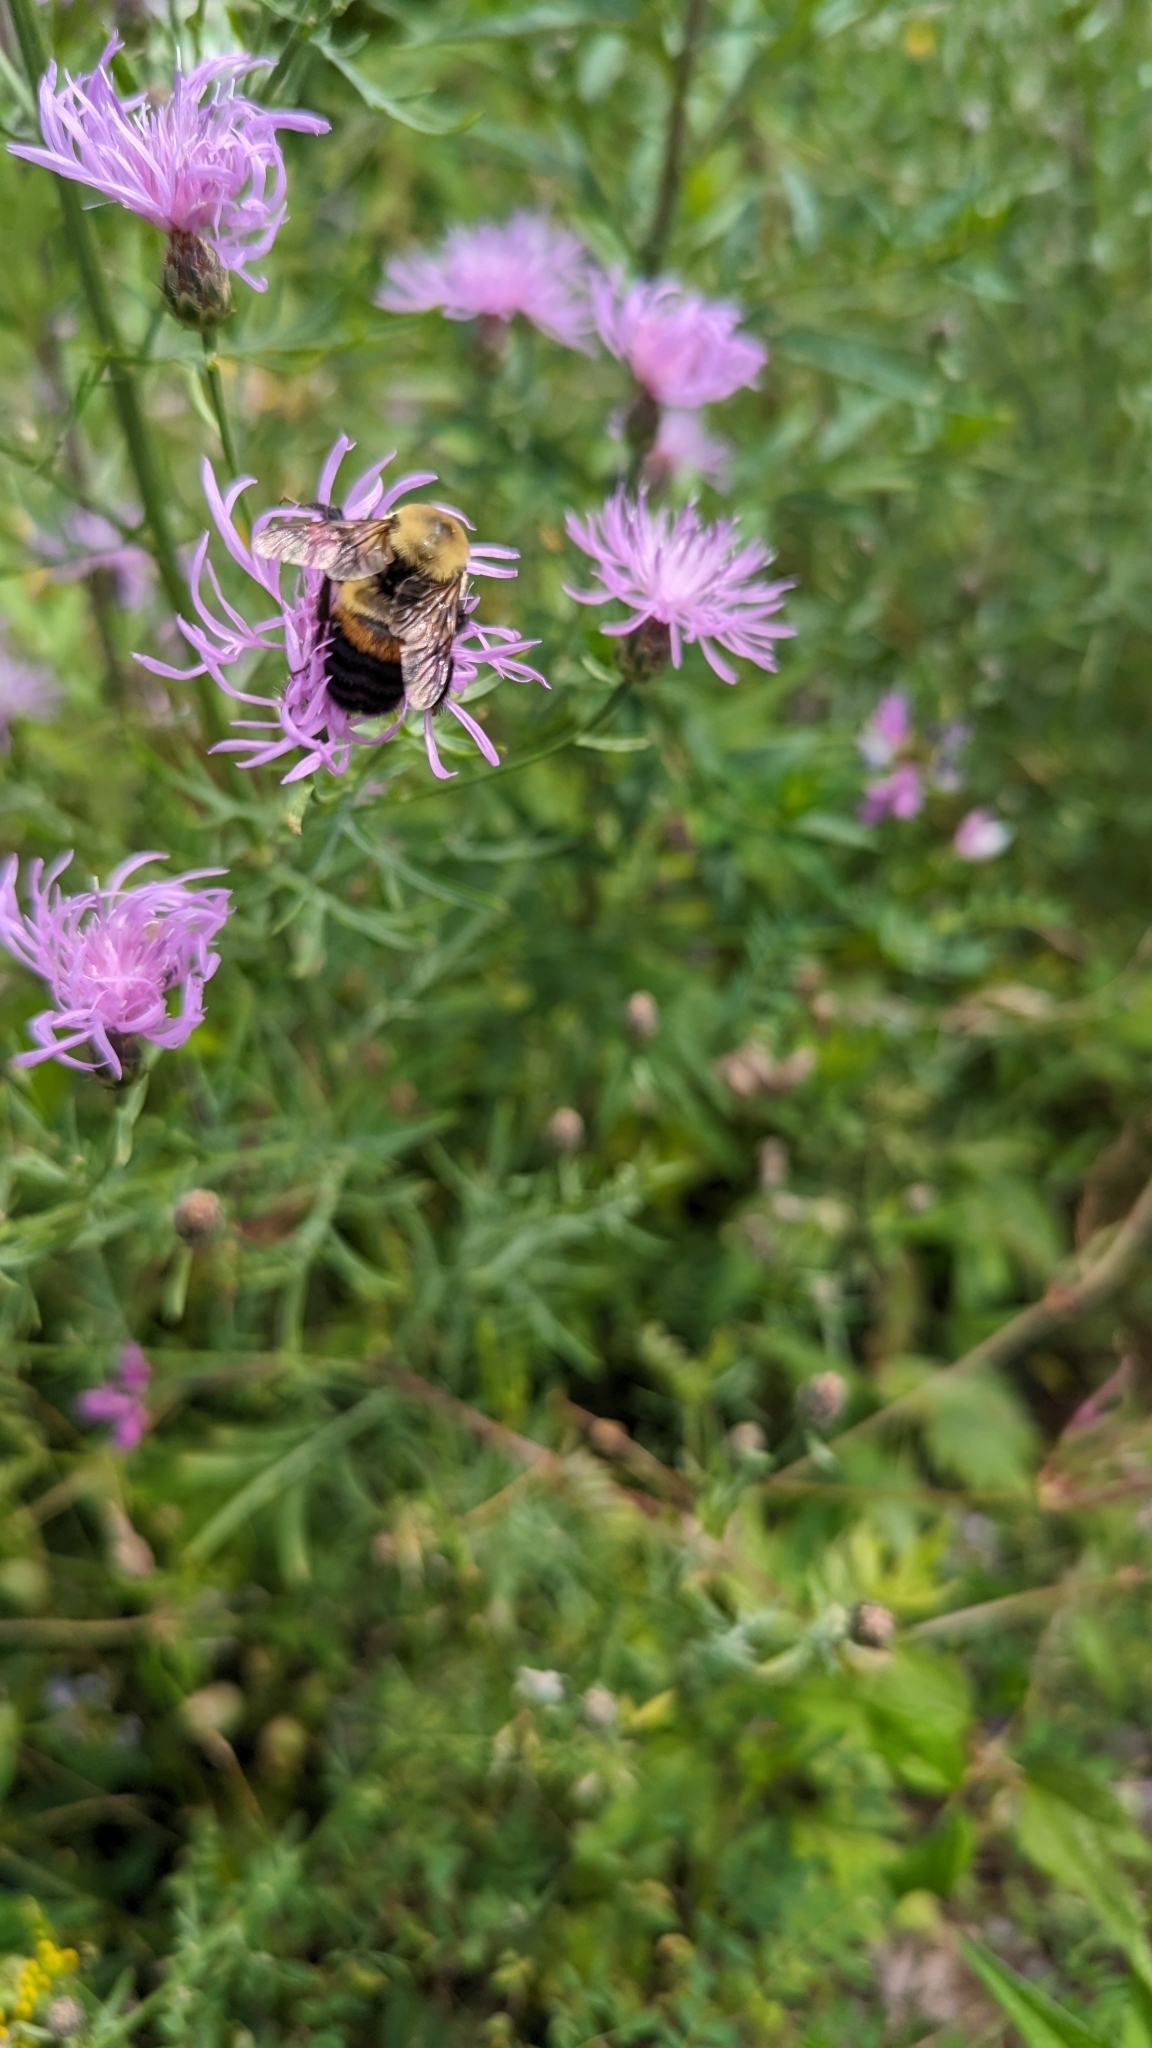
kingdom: Animalia
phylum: Arthropoda
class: Insecta
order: Hymenoptera
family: Apidae
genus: Bombus
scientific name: Bombus griseocollis
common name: Brown-belted bumble bee
